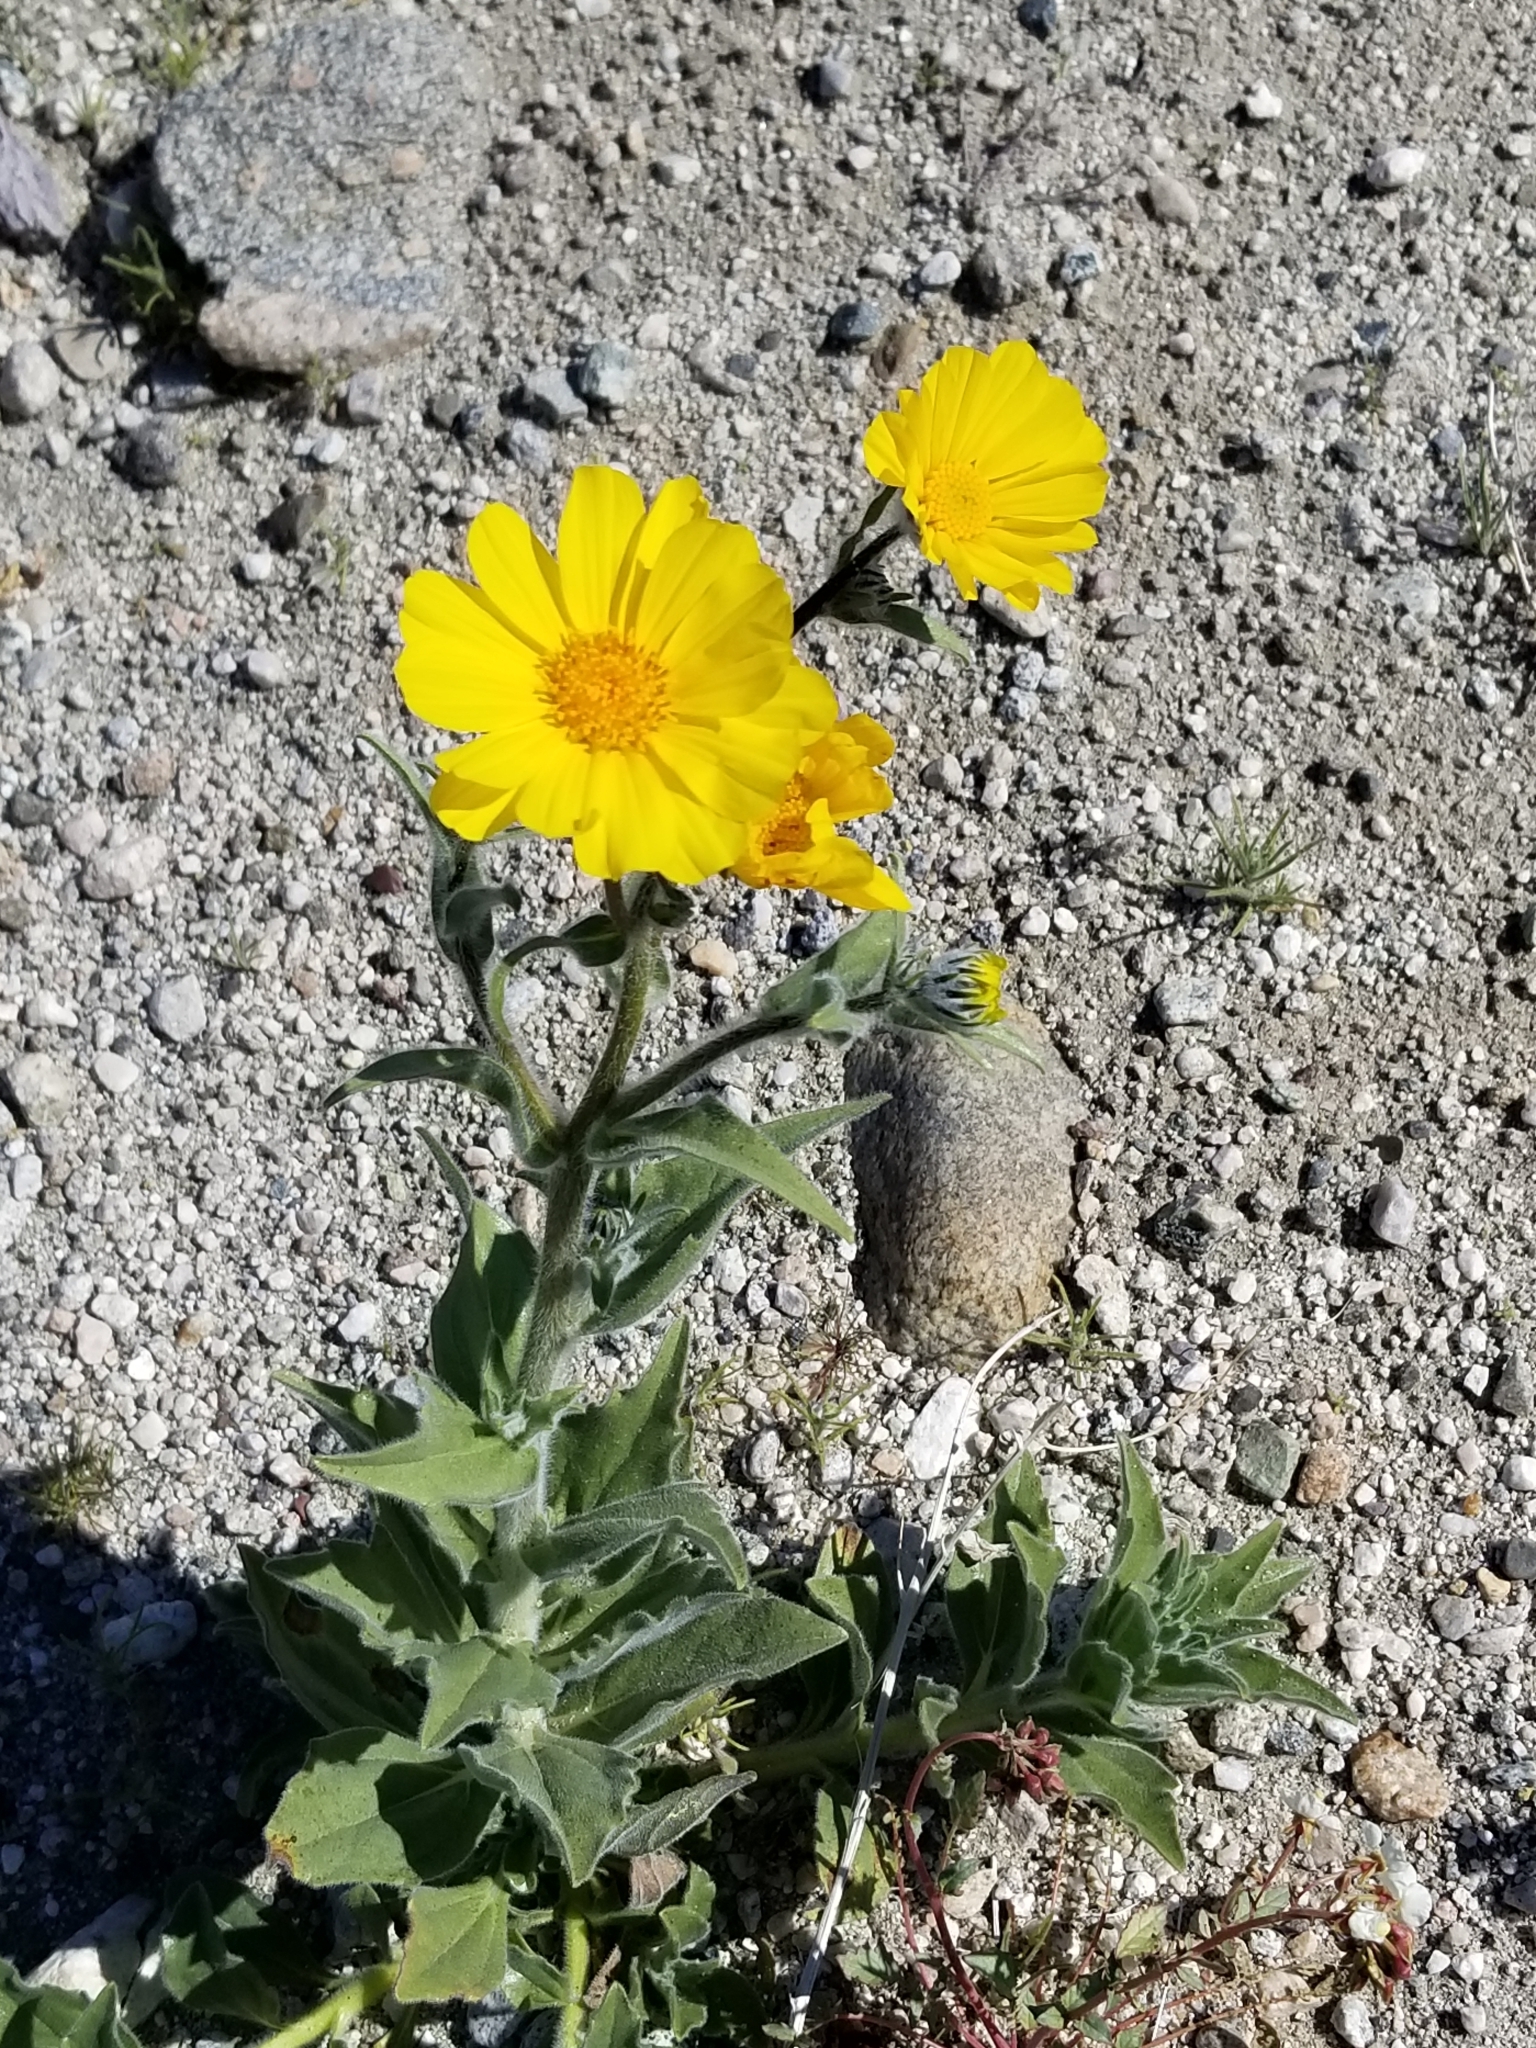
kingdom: Plantae
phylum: Tracheophyta
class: Magnoliopsida
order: Asterales
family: Asteraceae
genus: Geraea
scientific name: Geraea canescens
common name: Desert-gold
